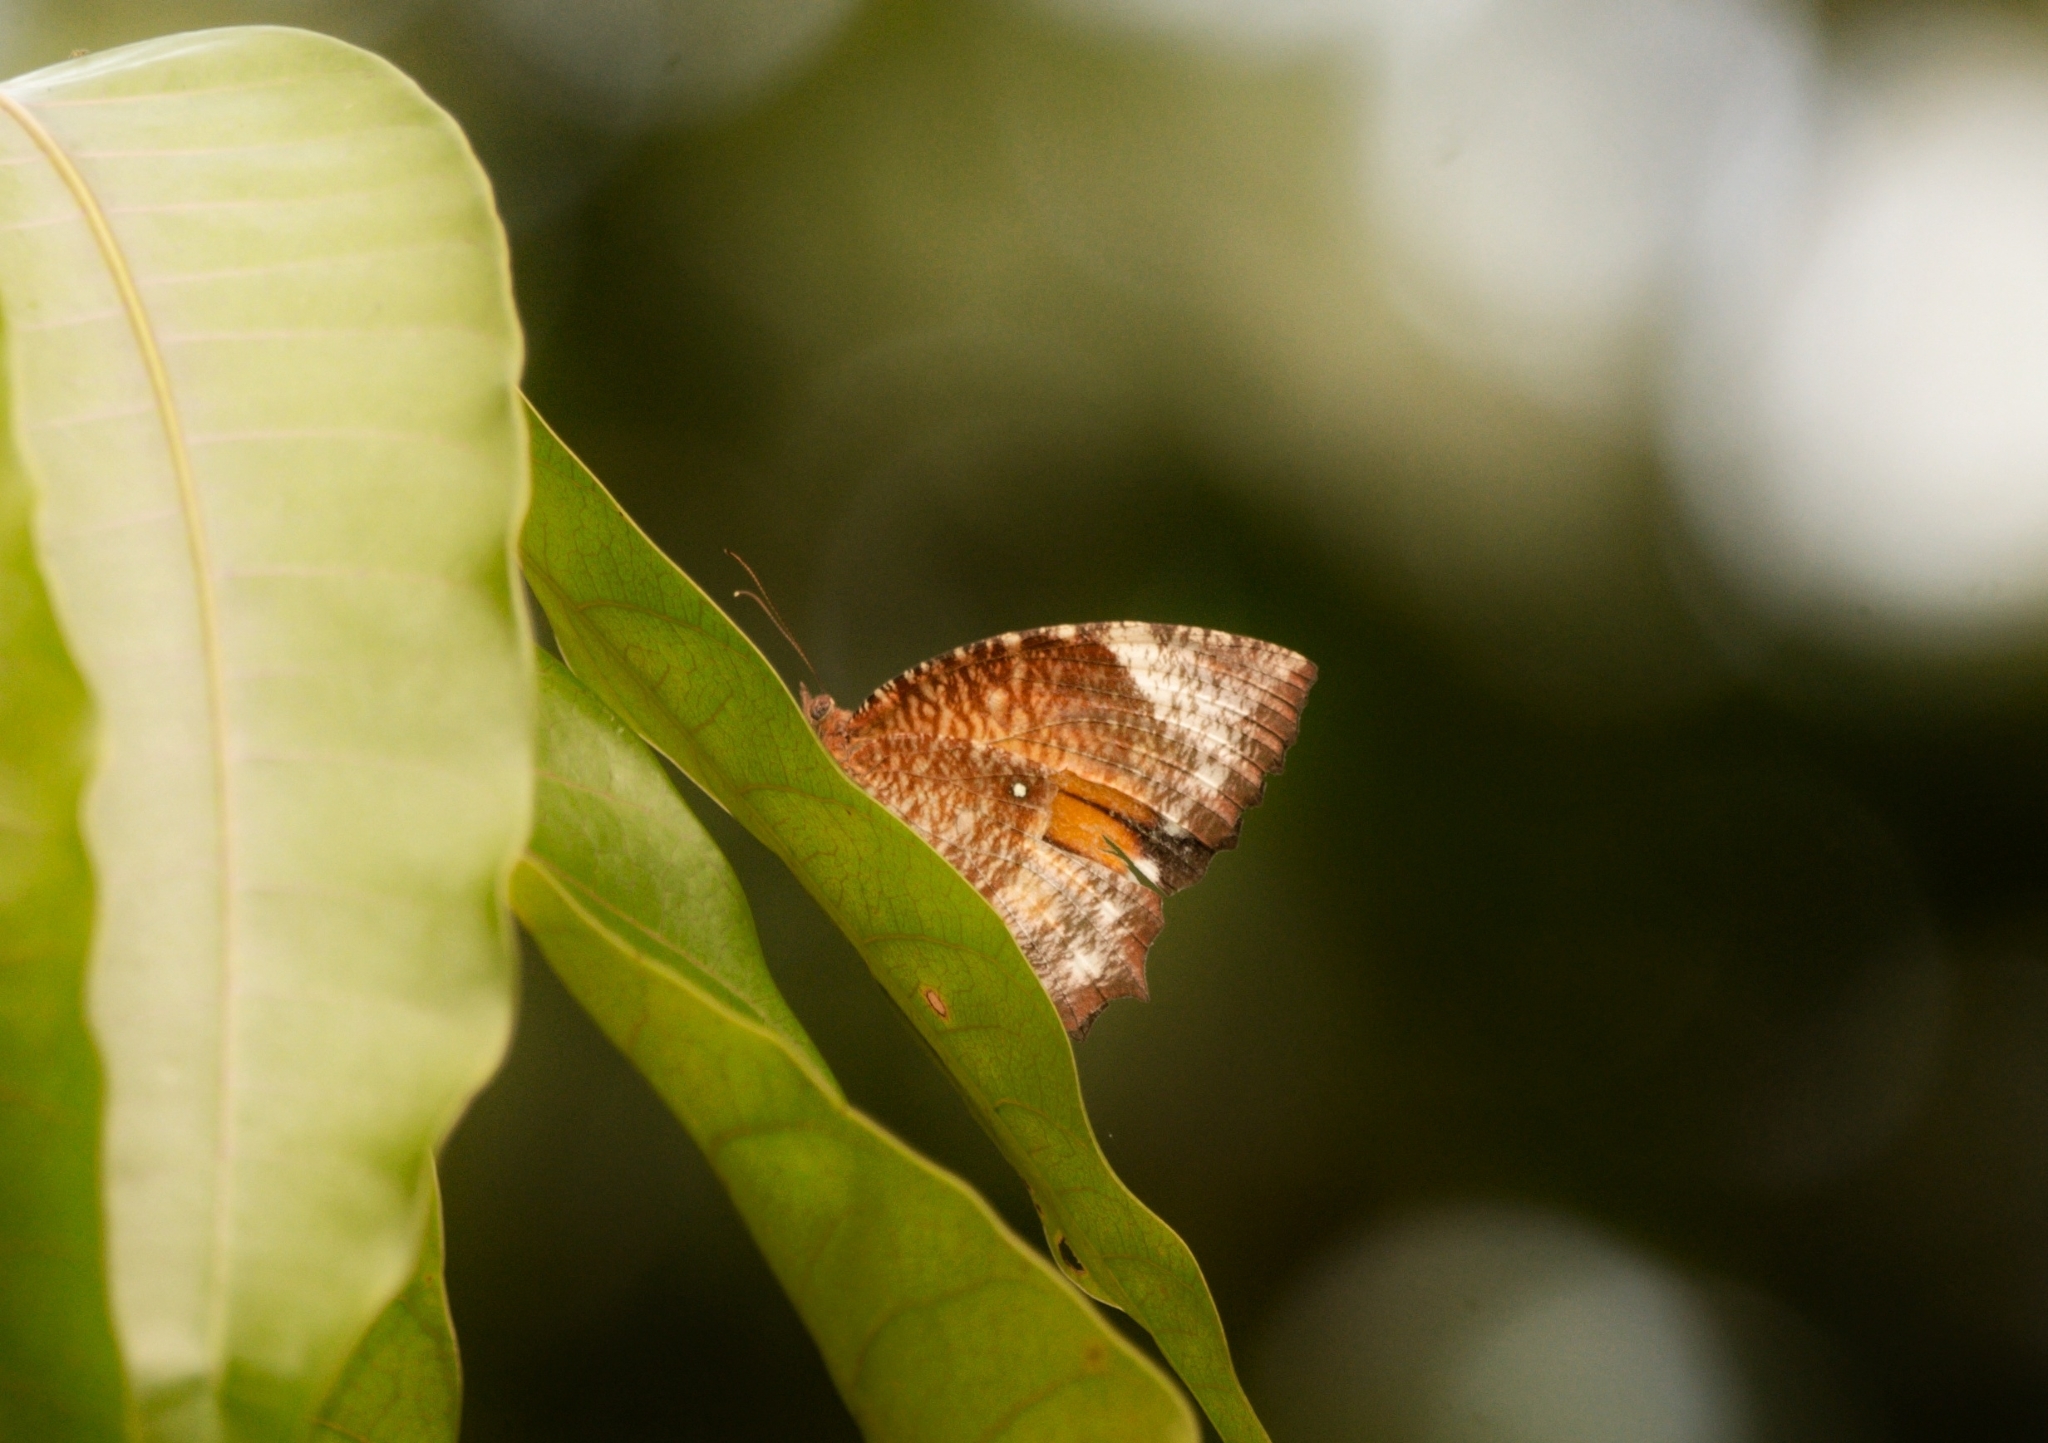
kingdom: Animalia
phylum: Arthropoda
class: Insecta
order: Lepidoptera
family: Nymphalidae
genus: Elymnias
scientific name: Elymnias hypermnestra
